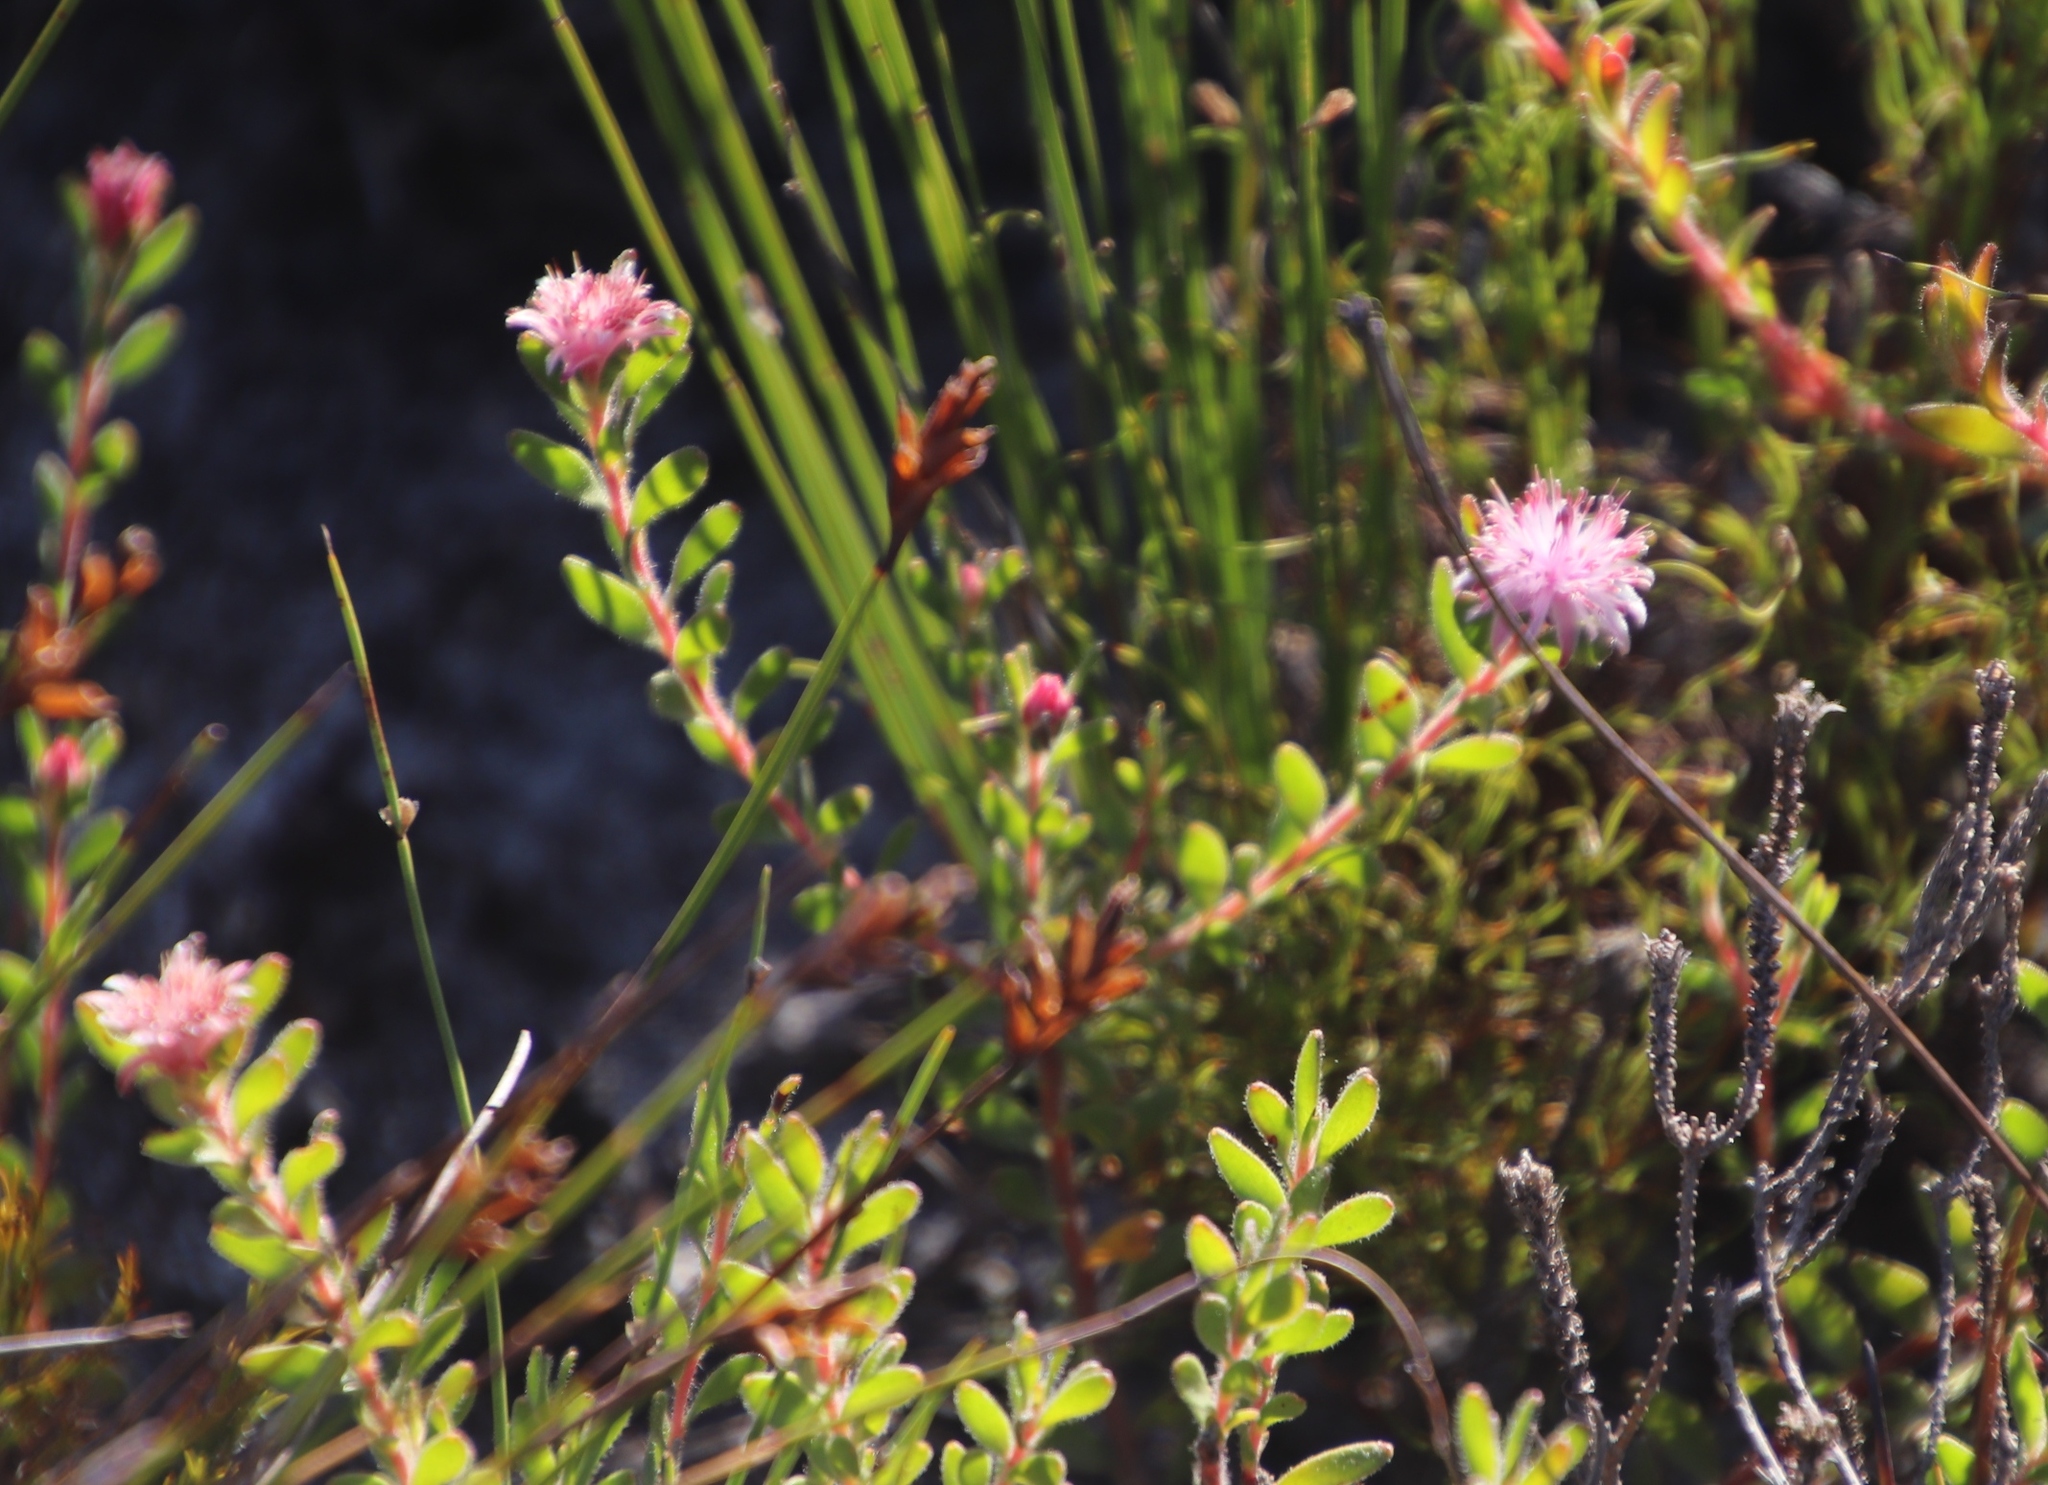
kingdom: Plantae
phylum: Tracheophyta
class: Magnoliopsida
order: Proteales
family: Proteaceae
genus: Diastella
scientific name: Diastella divaricata
